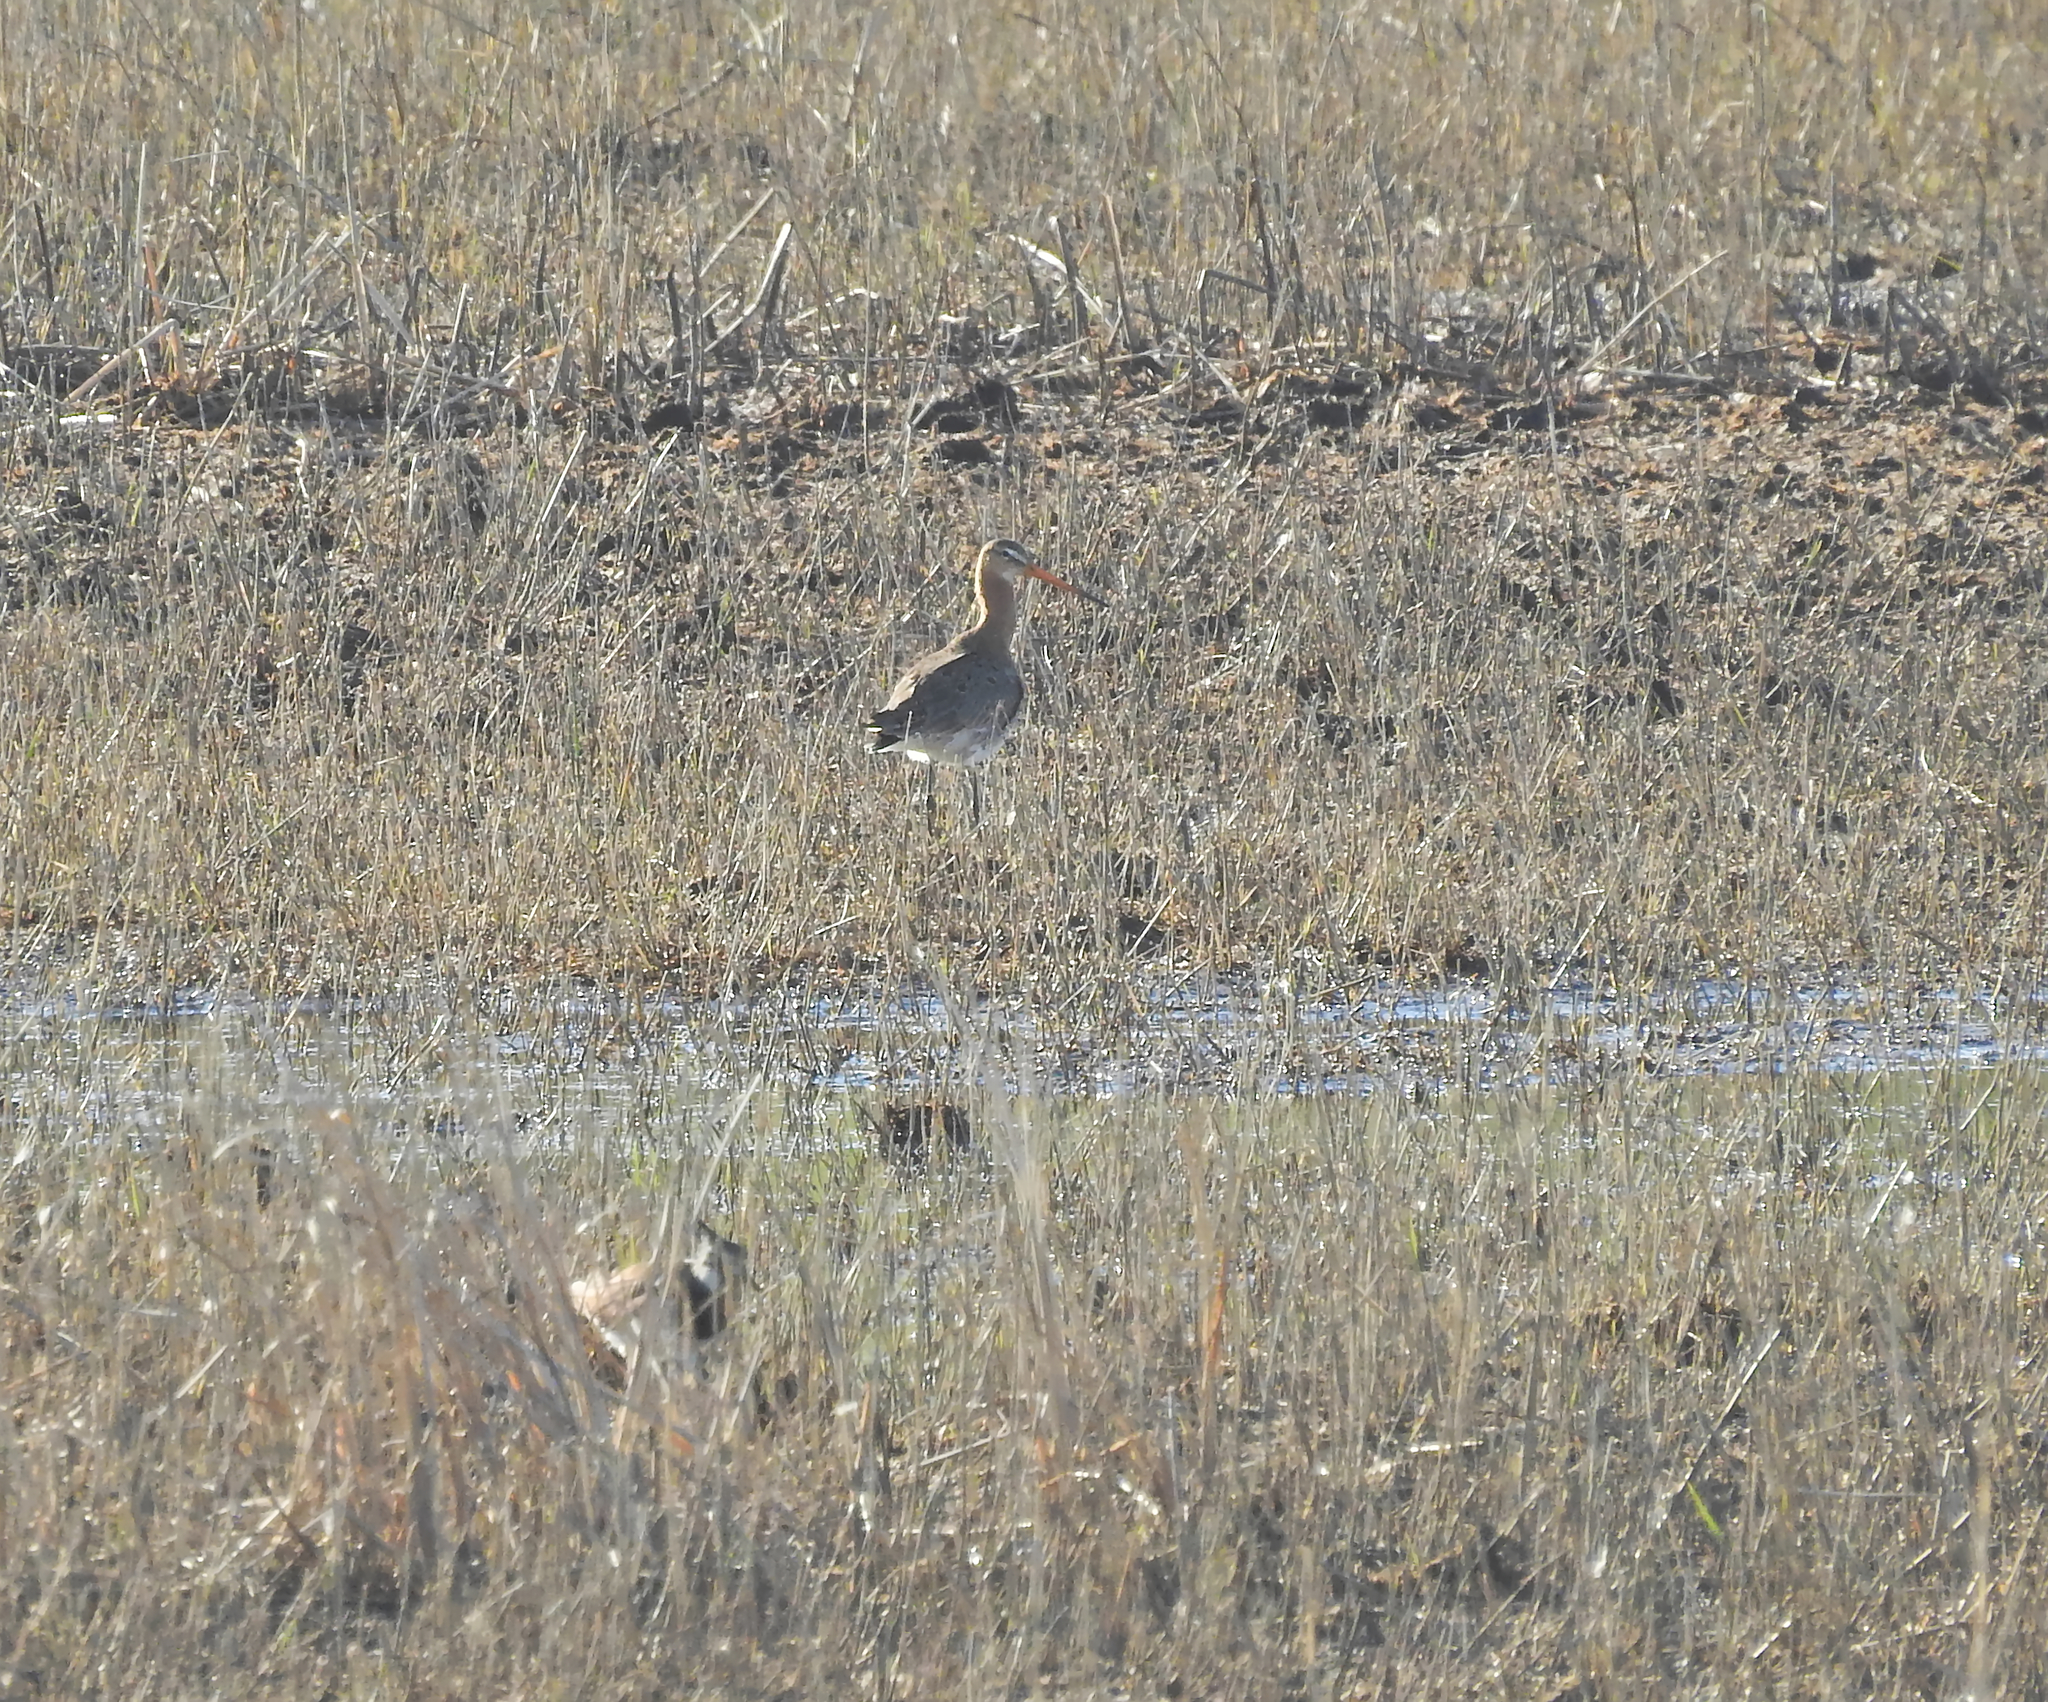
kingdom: Animalia
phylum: Chordata
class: Aves
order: Charadriiformes
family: Scolopacidae
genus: Limosa
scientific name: Limosa limosa
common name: Black-tailed godwit
